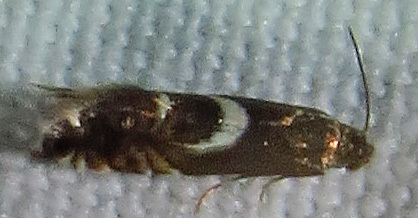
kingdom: Animalia
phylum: Arthropoda
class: Insecta
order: Lepidoptera
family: Glyphipterigidae
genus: Glyphipterix
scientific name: Glyphipterix Diploschizia impigritella
